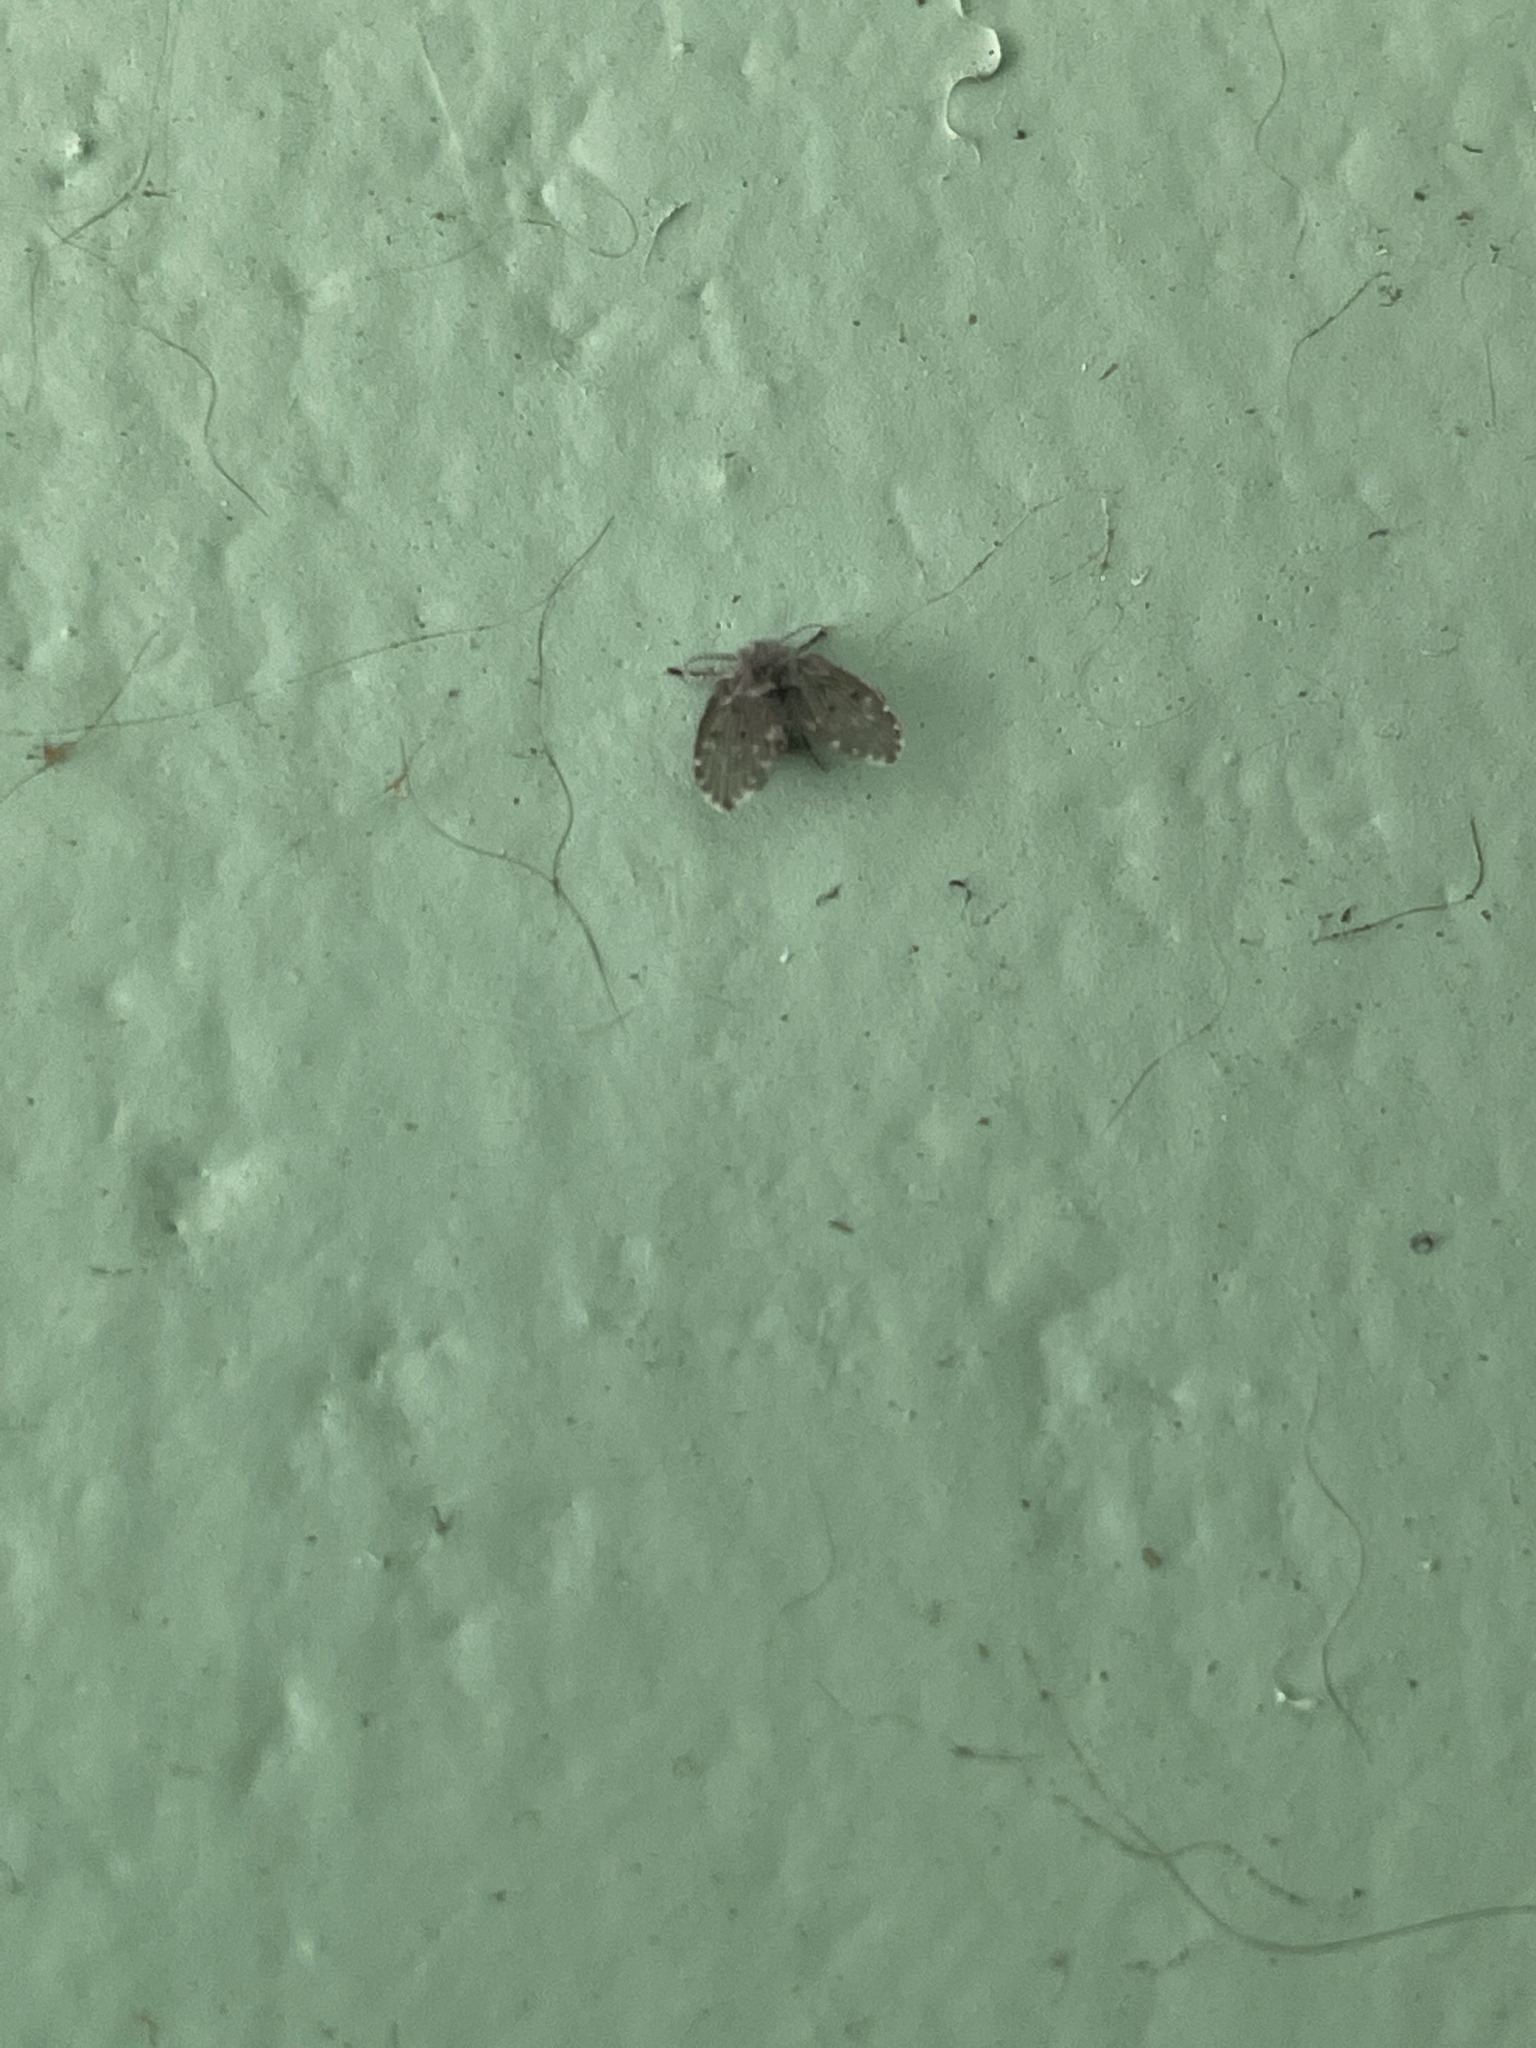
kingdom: Animalia
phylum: Arthropoda
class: Insecta
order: Diptera
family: Psychodidae
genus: Clogmia
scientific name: Clogmia albipunctatus
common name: White-spotted moth fly
